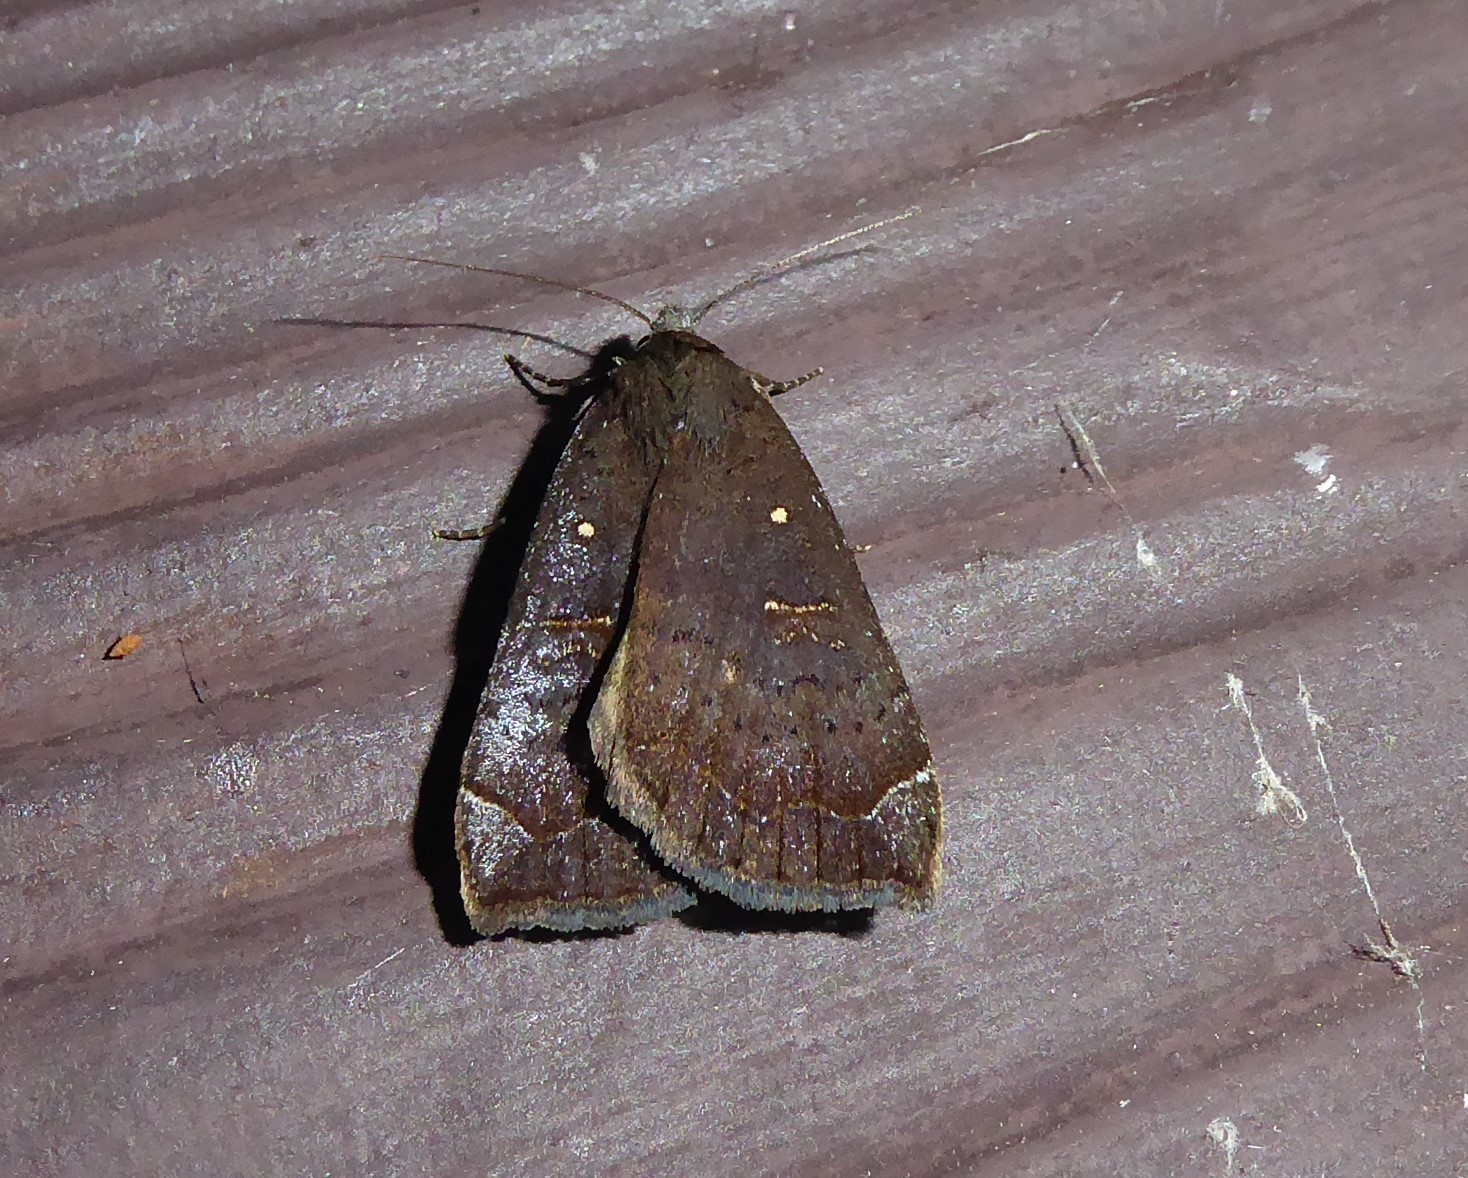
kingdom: Animalia
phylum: Arthropoda
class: Insecta
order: Lepidoptera
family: Erebidae
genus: Rhapsa
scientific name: Rhapsa scotosialis
